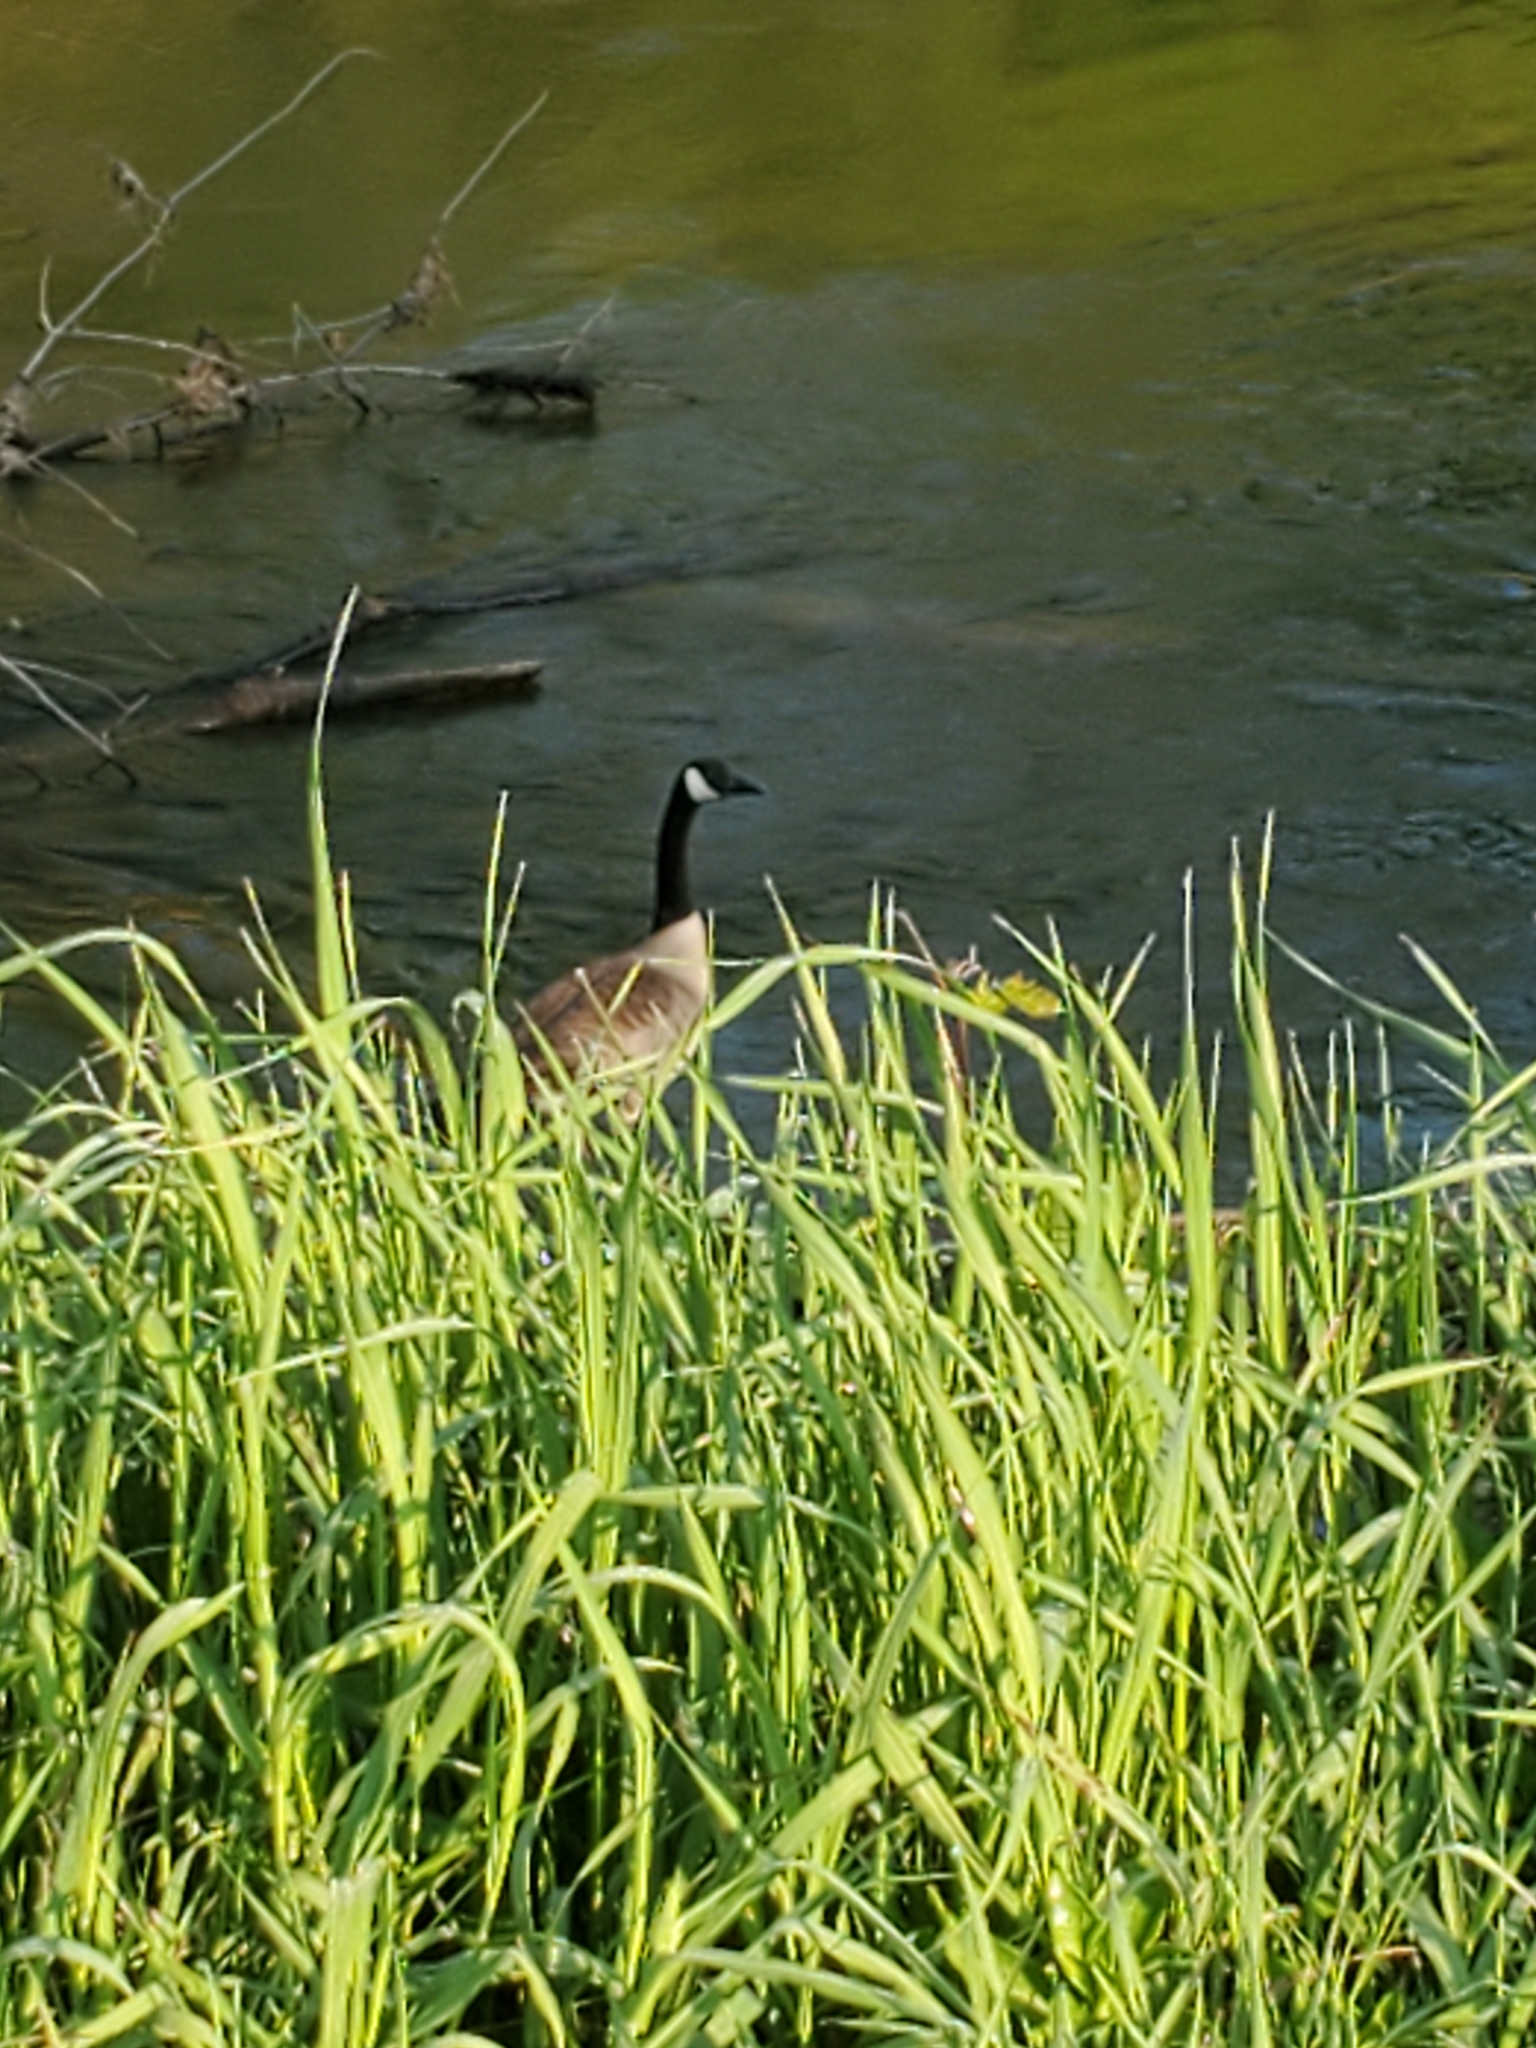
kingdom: Animalia
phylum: Chordata
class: Aves
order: Anseriformes
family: Anatidae
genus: Branta
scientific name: Branta canadensis
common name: Canada goose
